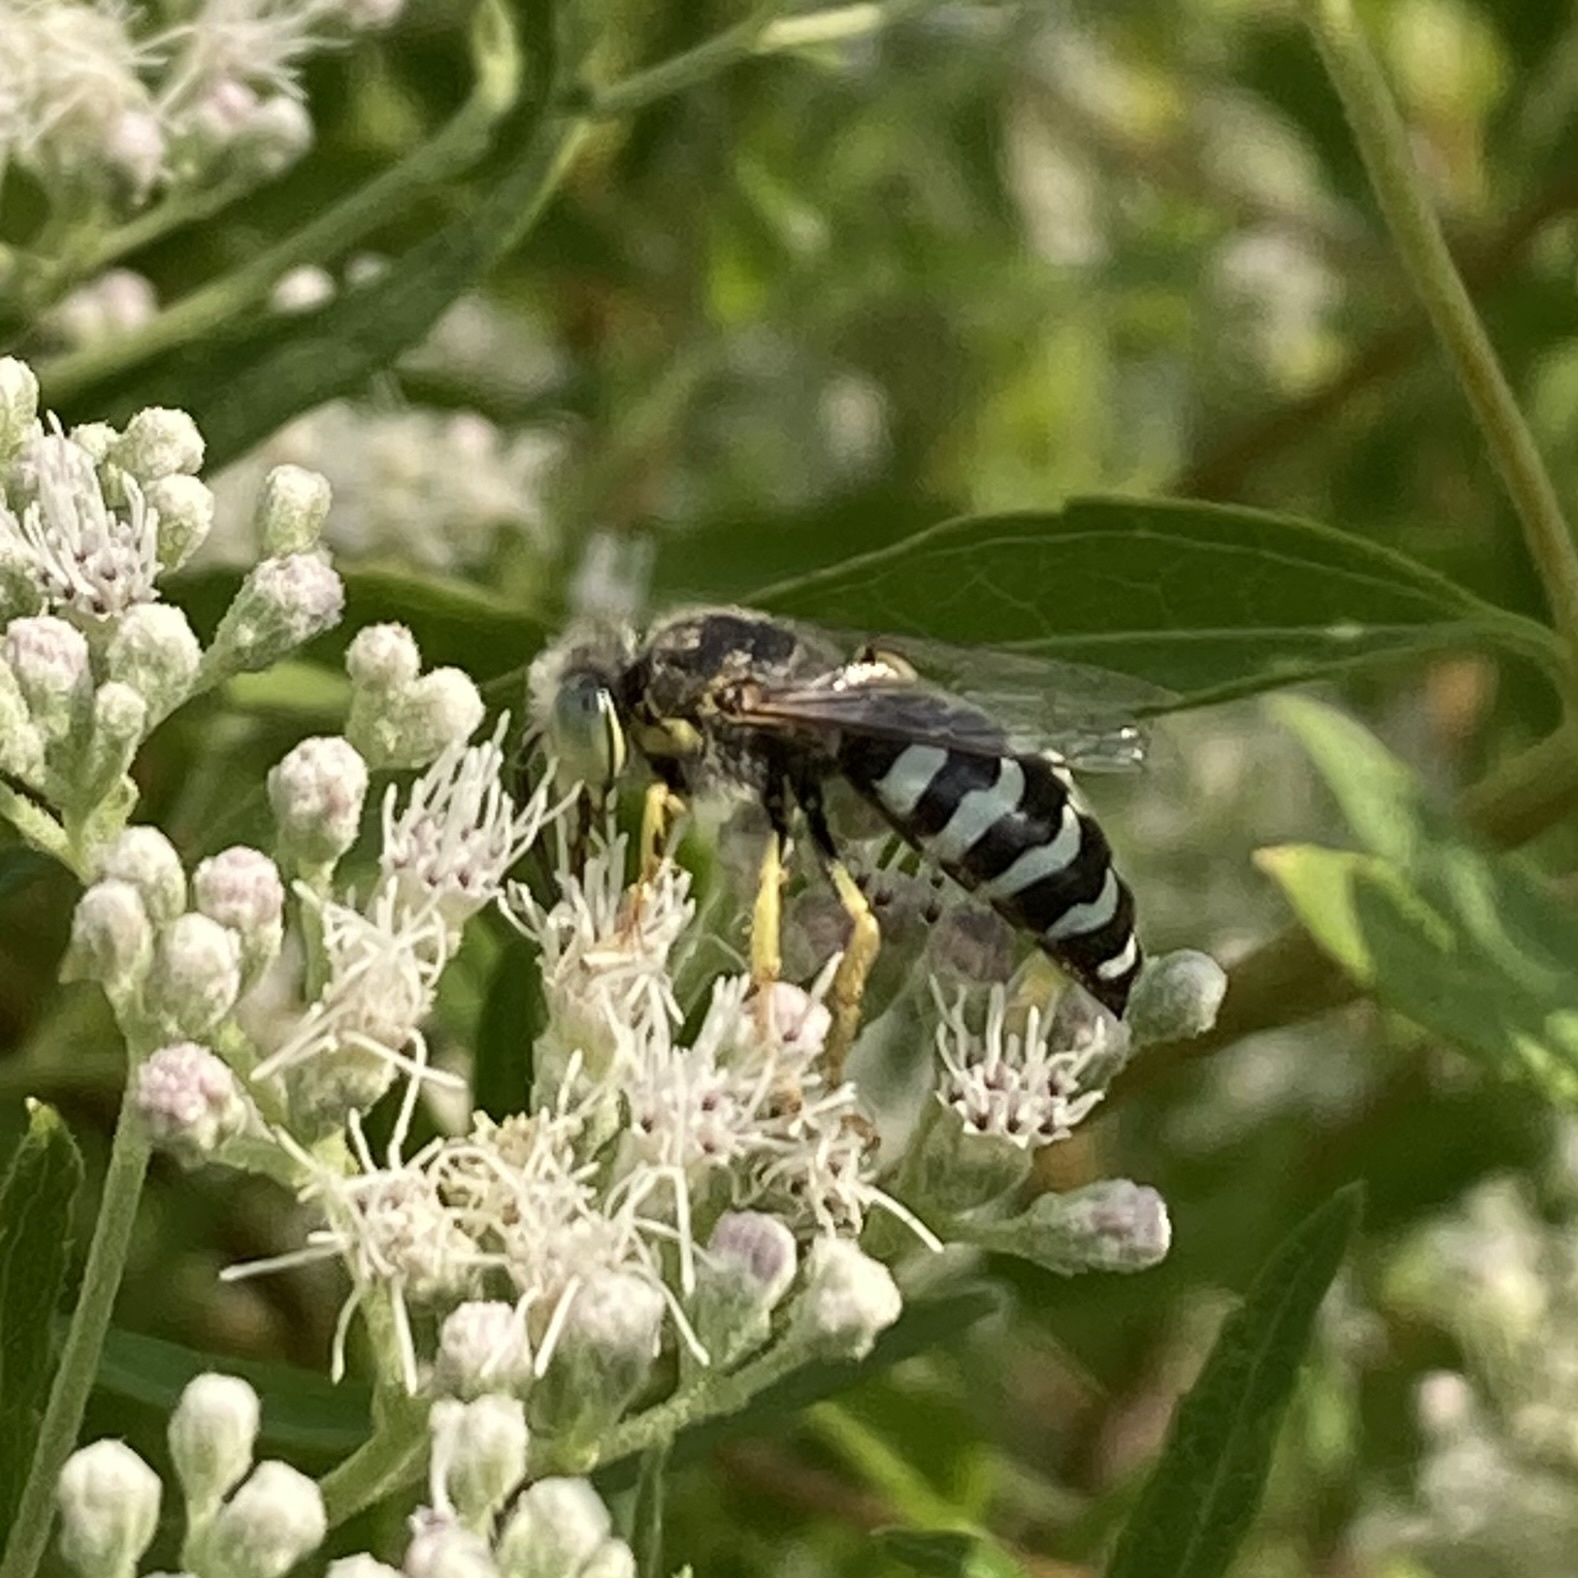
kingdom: Animalia
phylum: Arthropoda
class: Insecta
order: Hymenoptera
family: Crabronidae
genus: Bembix
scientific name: Bembix americana
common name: American sand wasp
